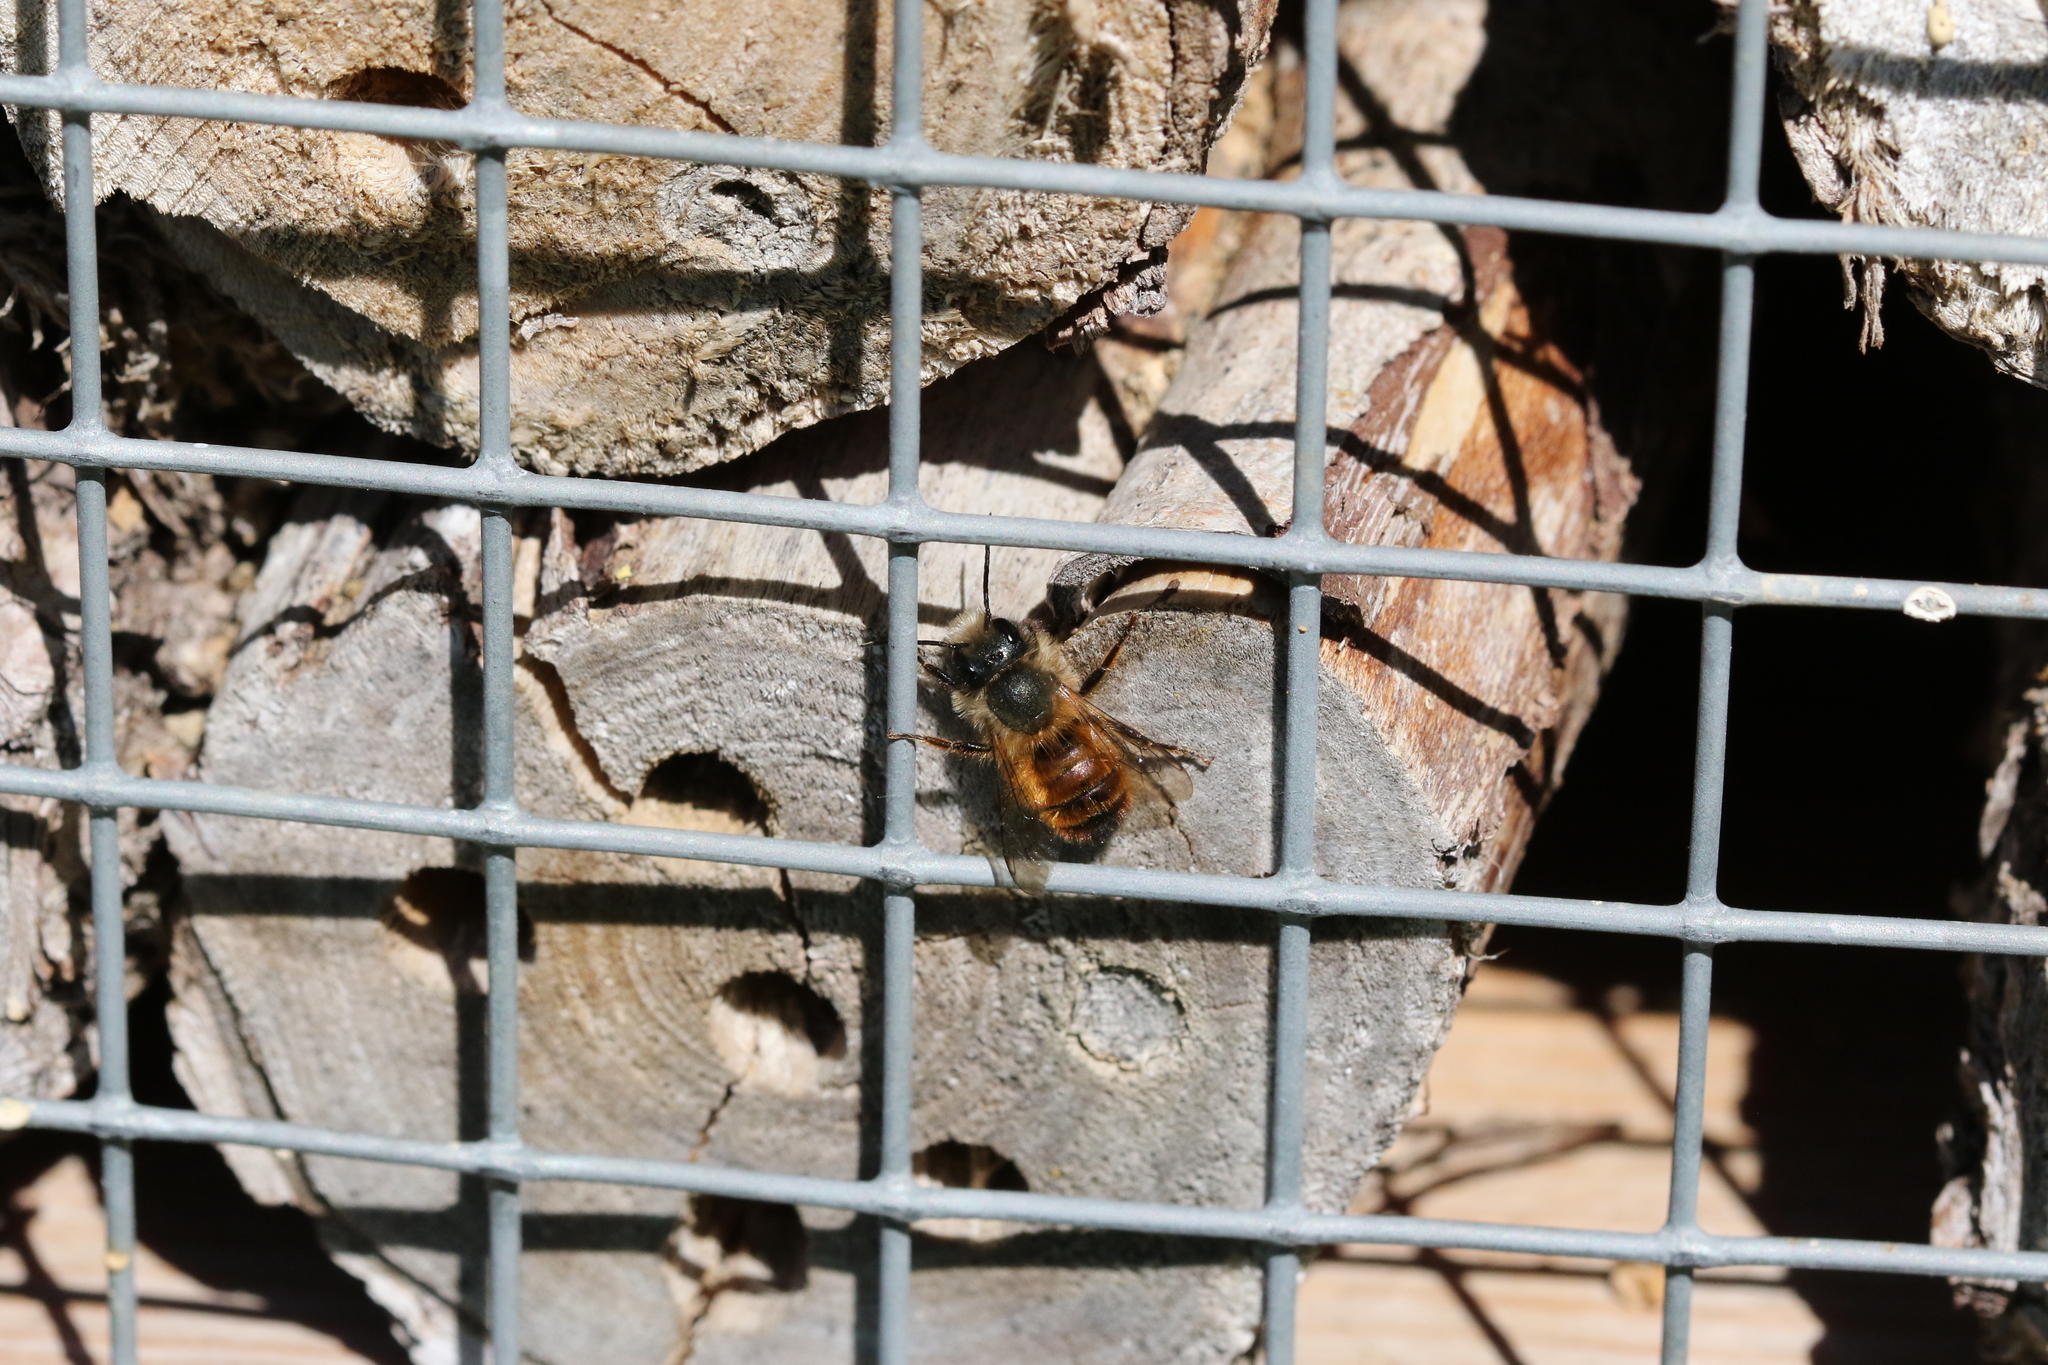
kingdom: Animalia
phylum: Arthropoda
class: Insecta
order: Hymenoptera
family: Megachilidae
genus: Osmia
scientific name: Osmia bicornis
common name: Red mason bee
